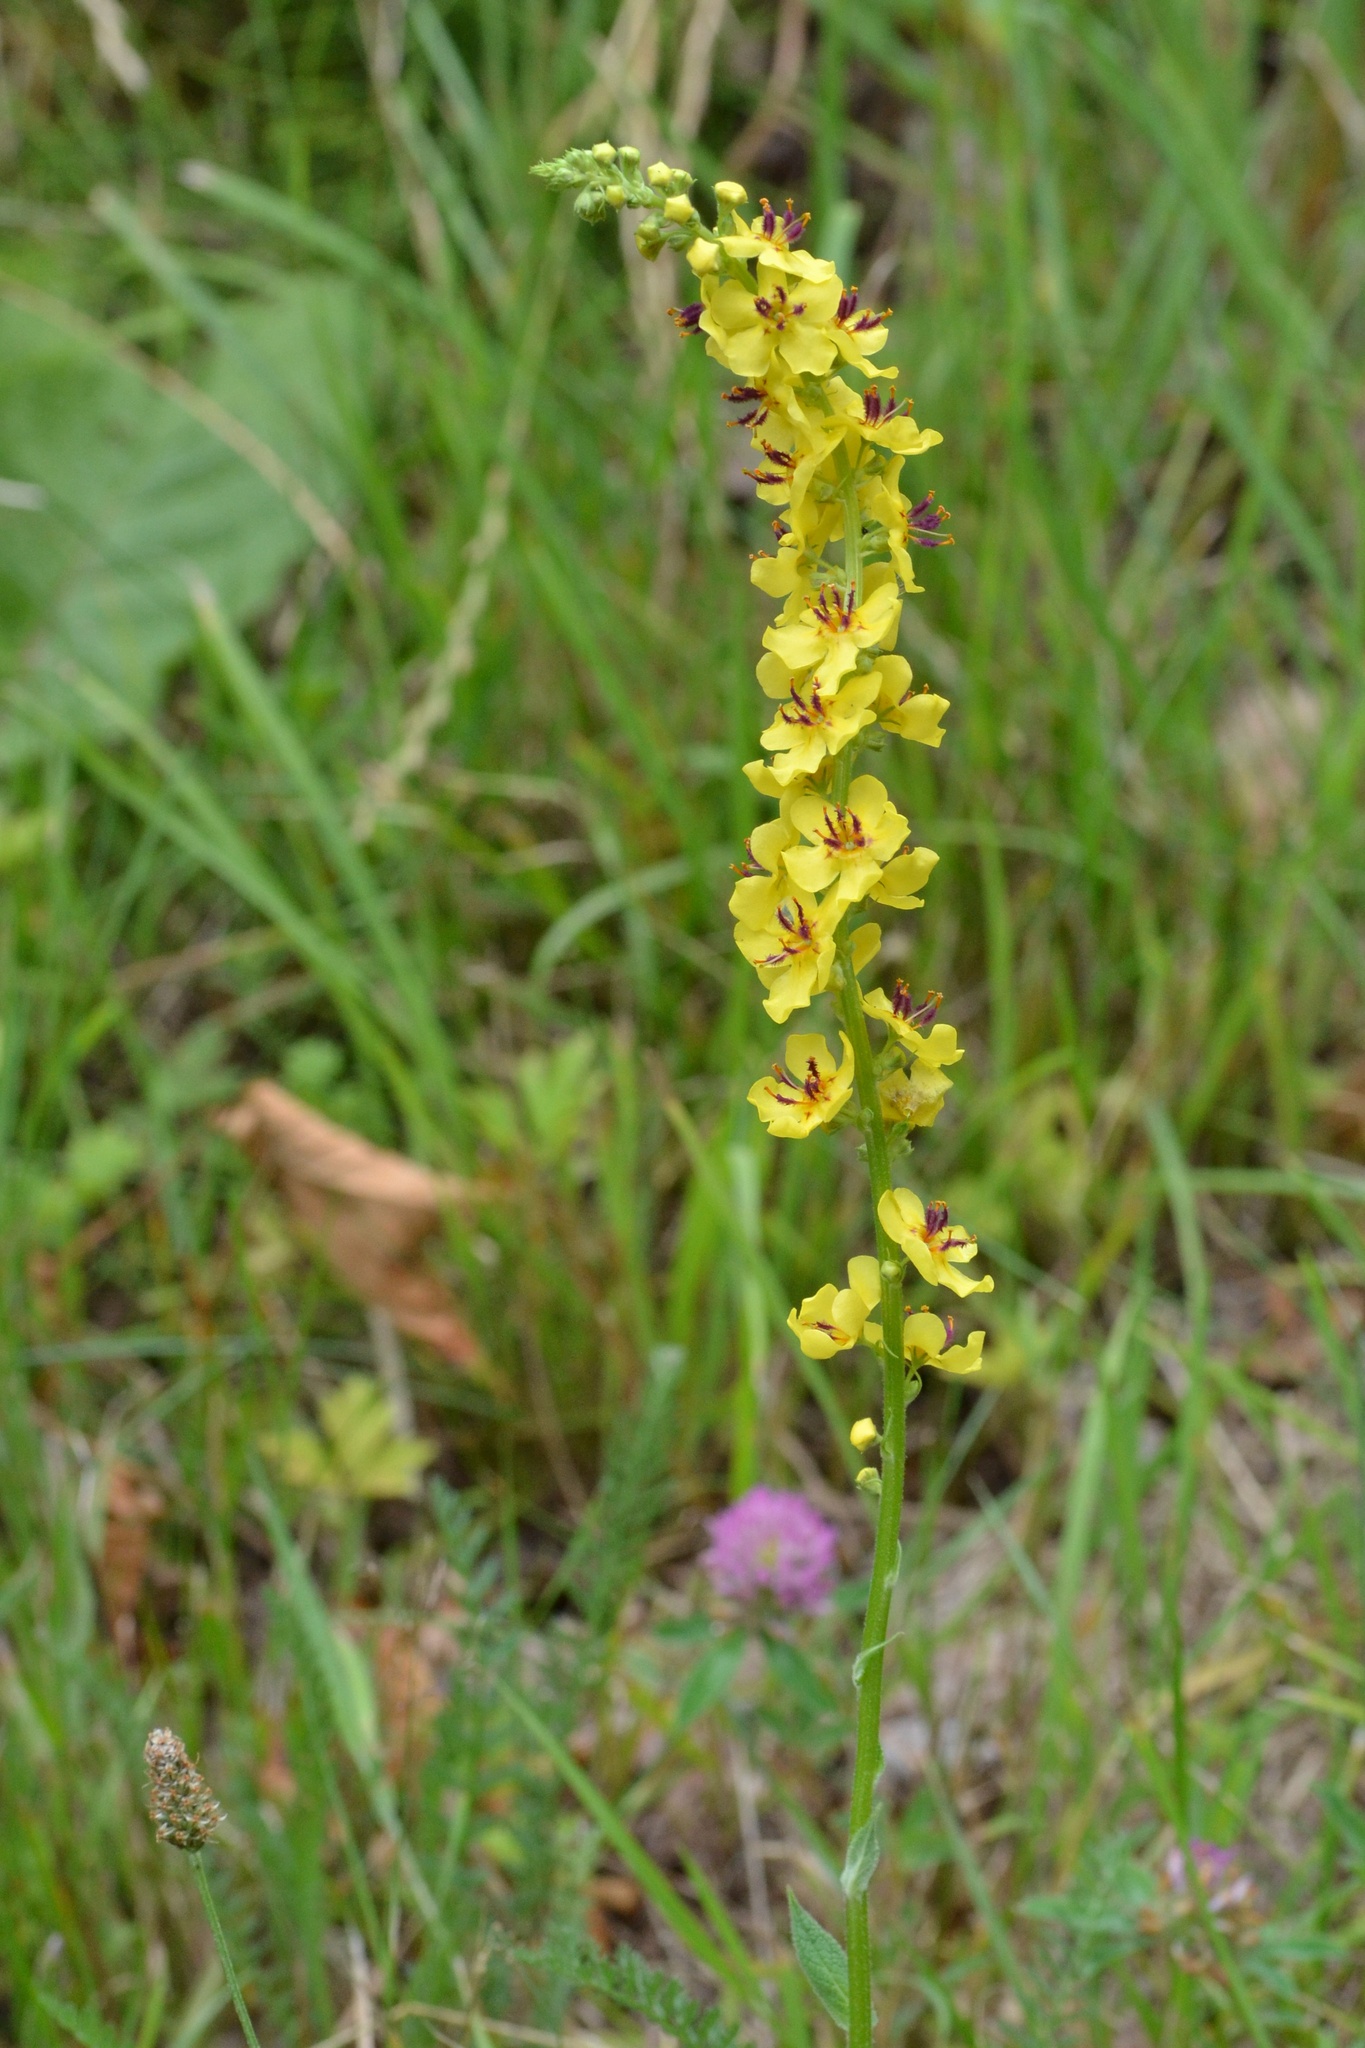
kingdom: Plantae
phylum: Tracheophyta
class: Magnoliopsida
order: Lamiales
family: Scrophulariaceae
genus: Verbascum
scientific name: Verbascum nigrum
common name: Dark mullein
